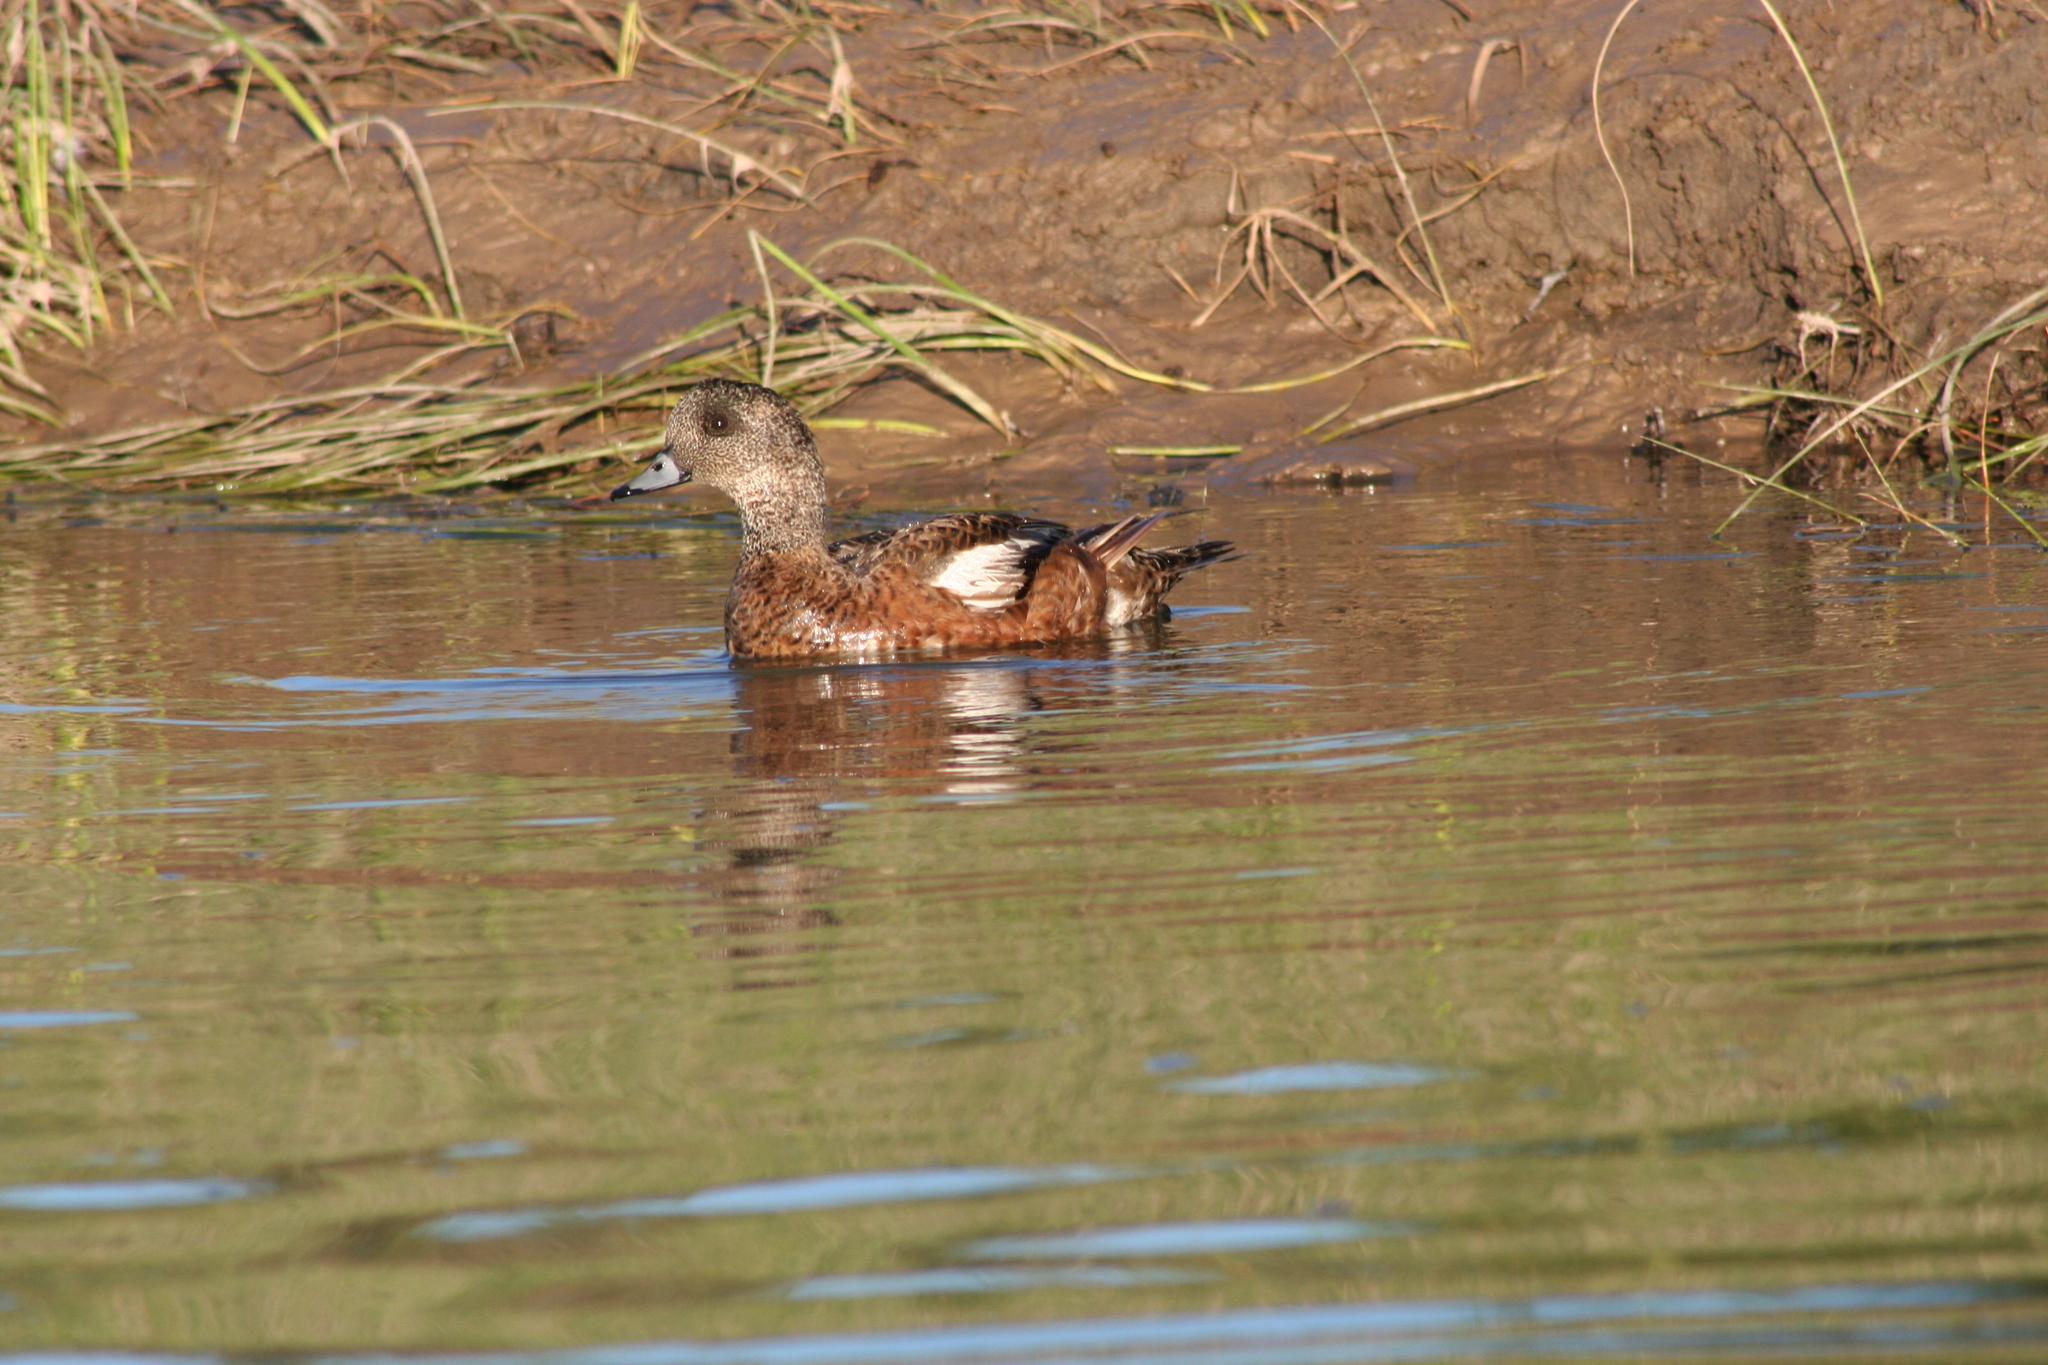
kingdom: Animalia
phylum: Chordata
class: Aves
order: Anseriformes
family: Anatidae
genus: Mareca
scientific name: Mareca americana
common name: American wigeon
